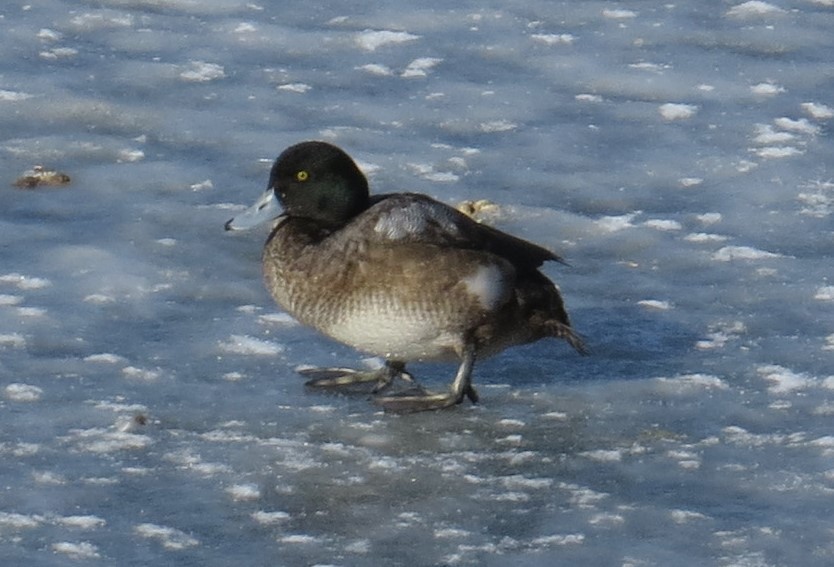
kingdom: Animalia
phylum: Chordata
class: Aves
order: Anseriformes
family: Anatidae
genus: Aythya
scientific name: Aythya marila
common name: Greater scaup
